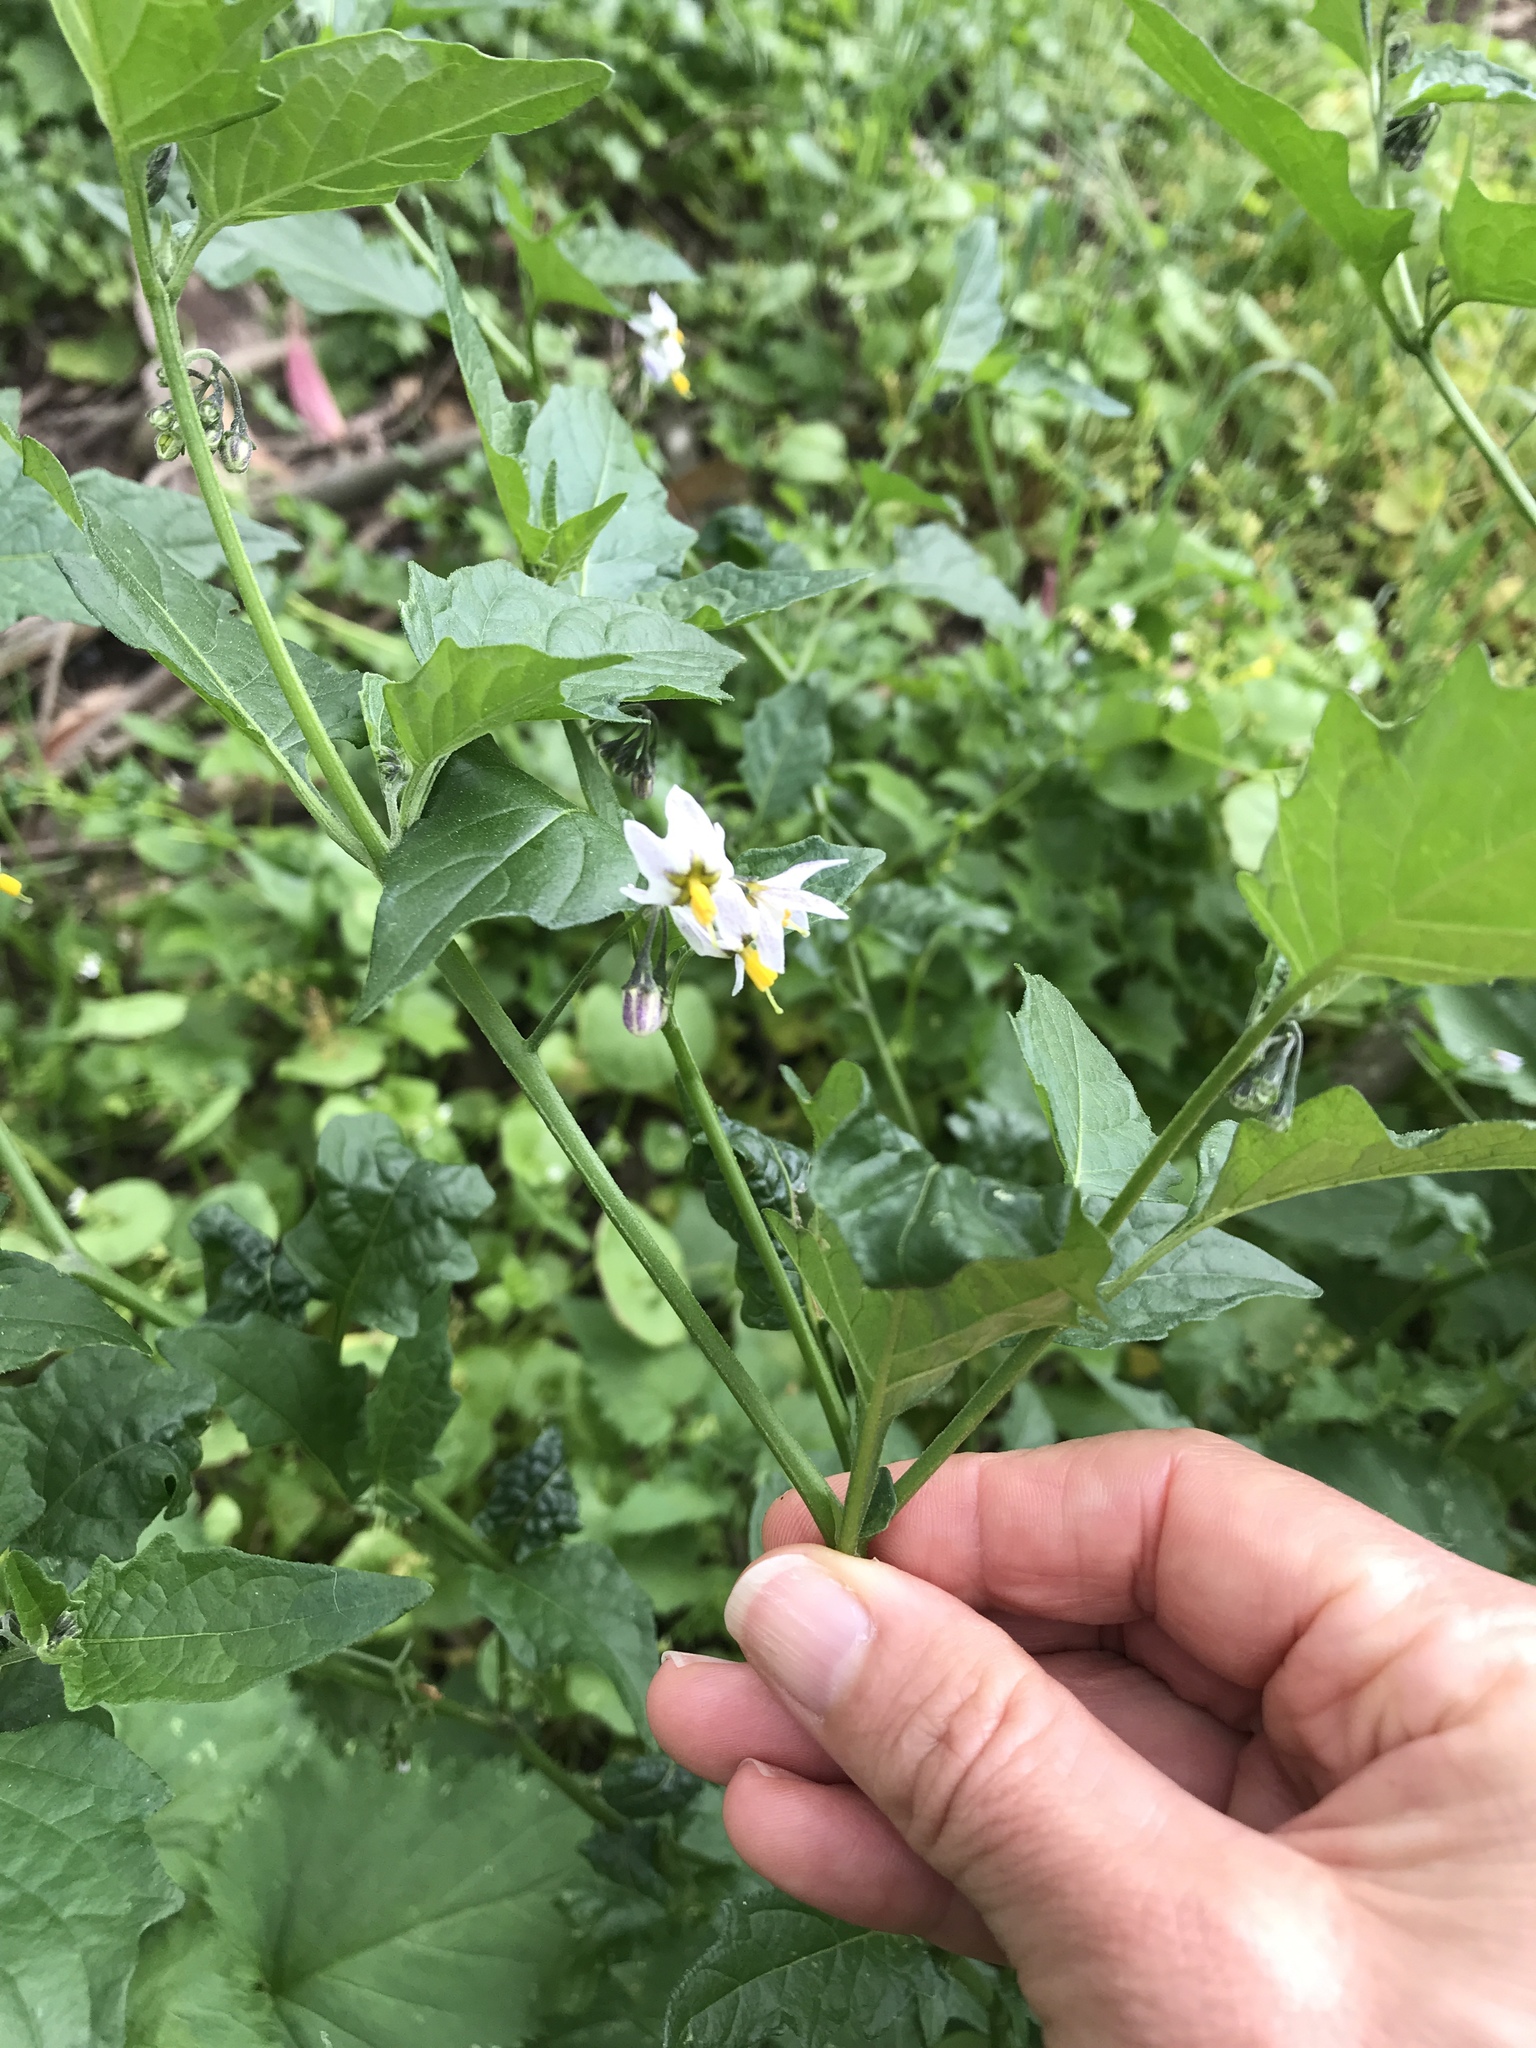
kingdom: Plantae
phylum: Tracheophyta
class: Magnoliopsida
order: Solanales
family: Solanaceae
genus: Solanum
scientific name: Solanum douglasii
